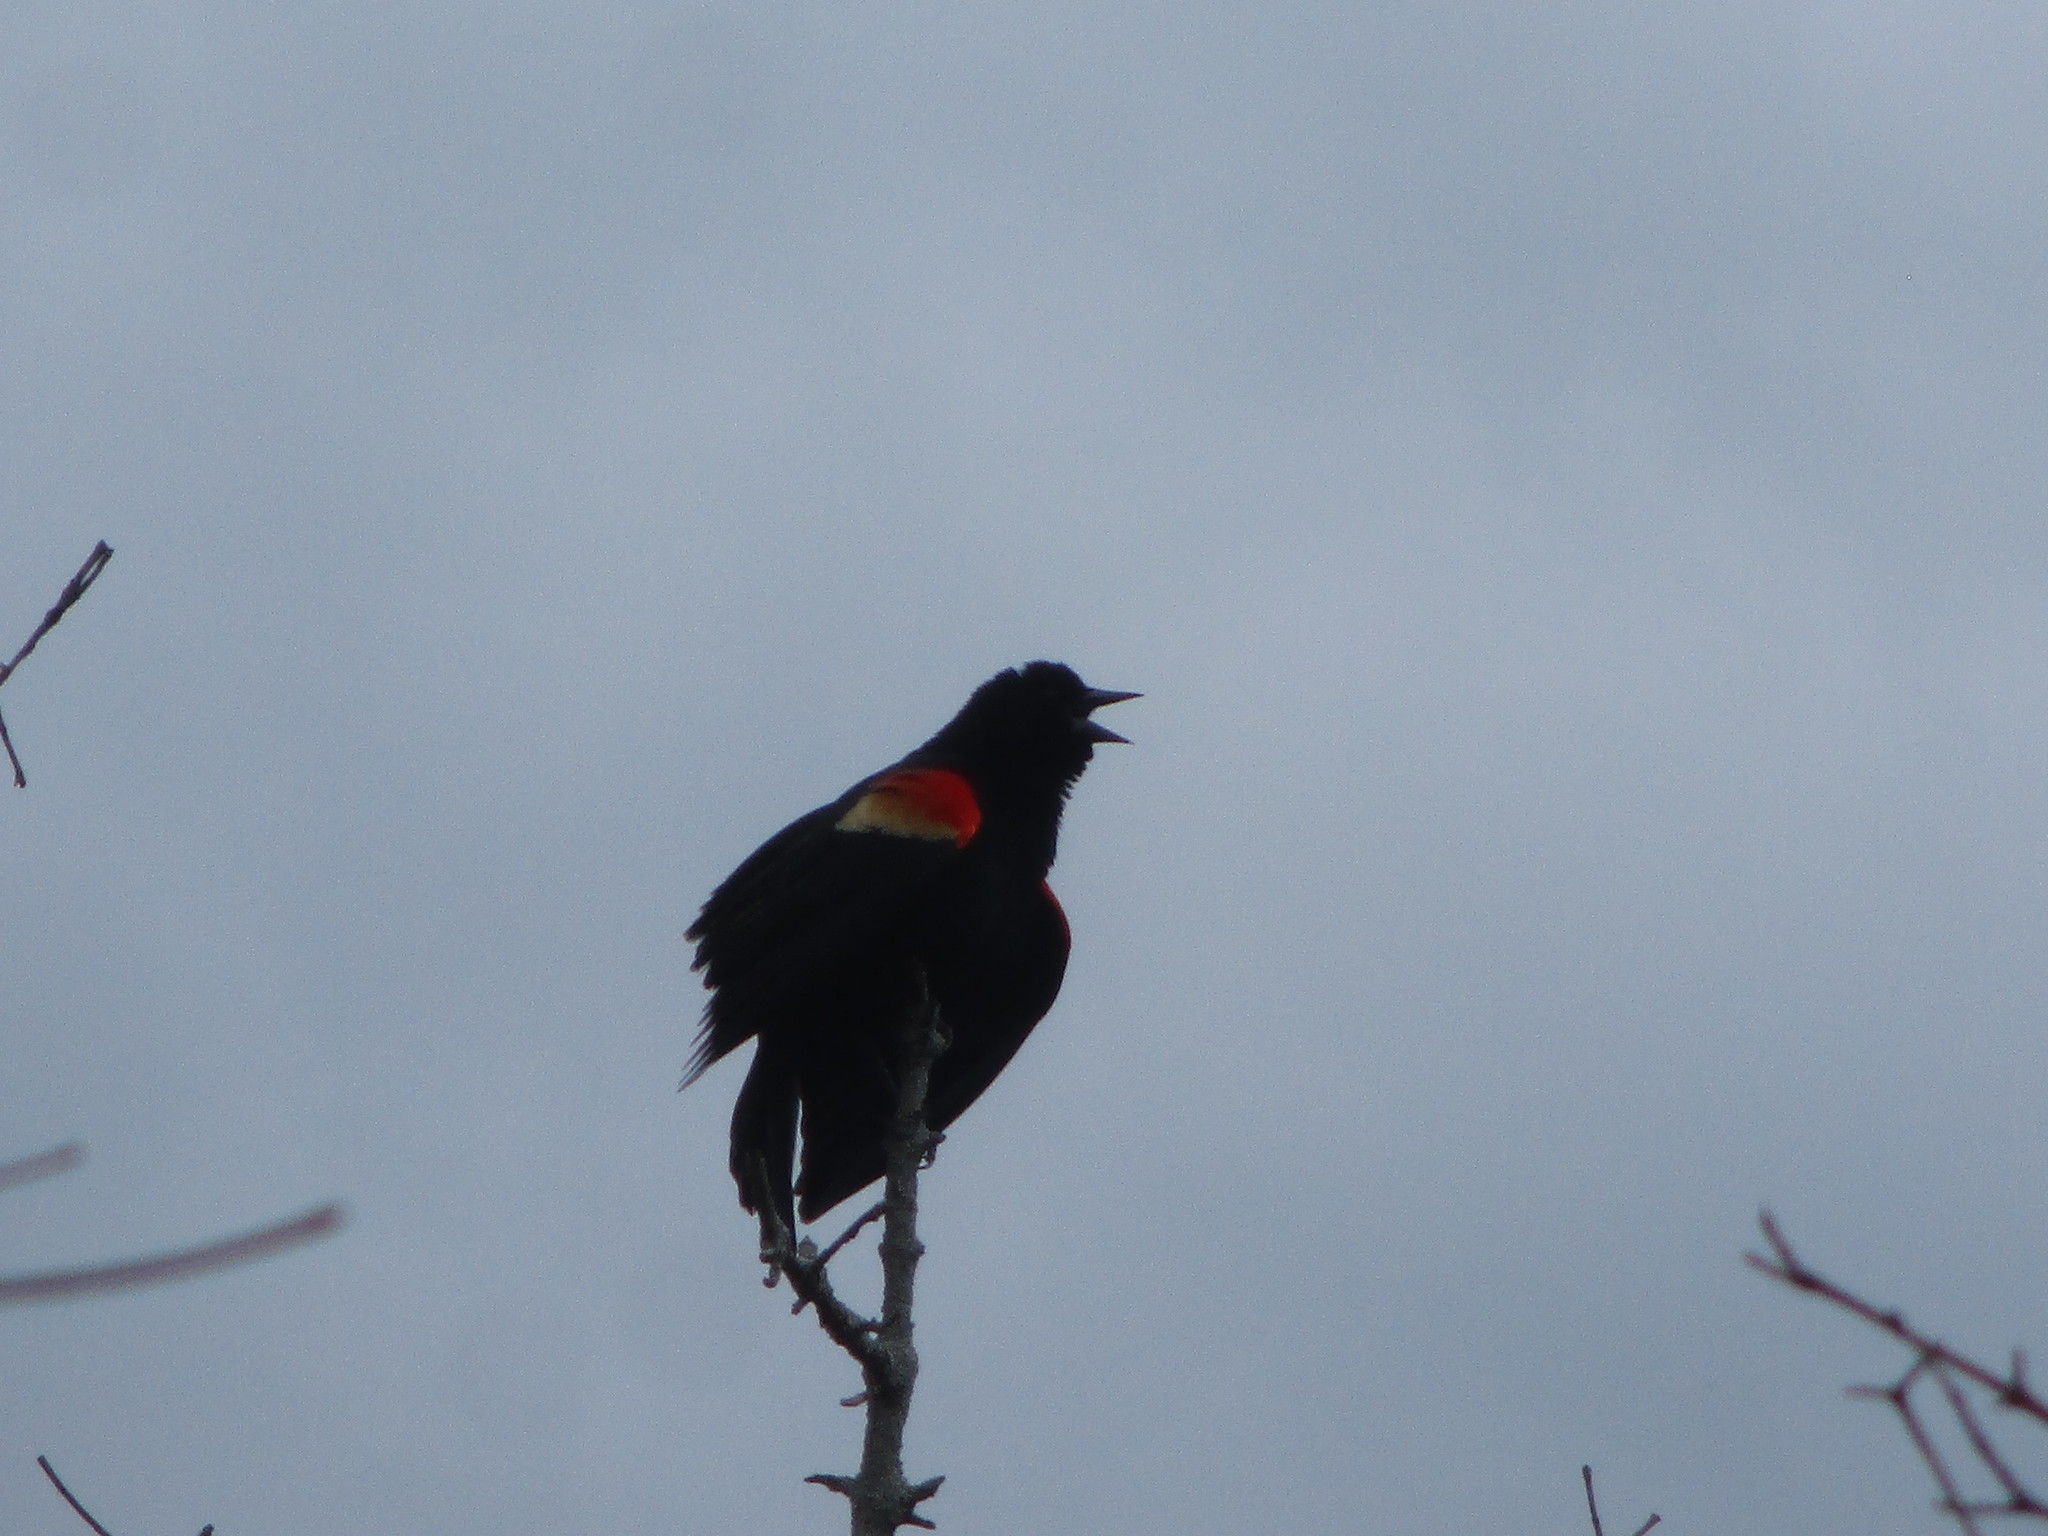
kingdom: Animalia
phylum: Chordata
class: Aves
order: Passeriformes
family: Icteridae
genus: Agelaius
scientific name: Agelaius phoeniceus
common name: Red-winged blackbird
